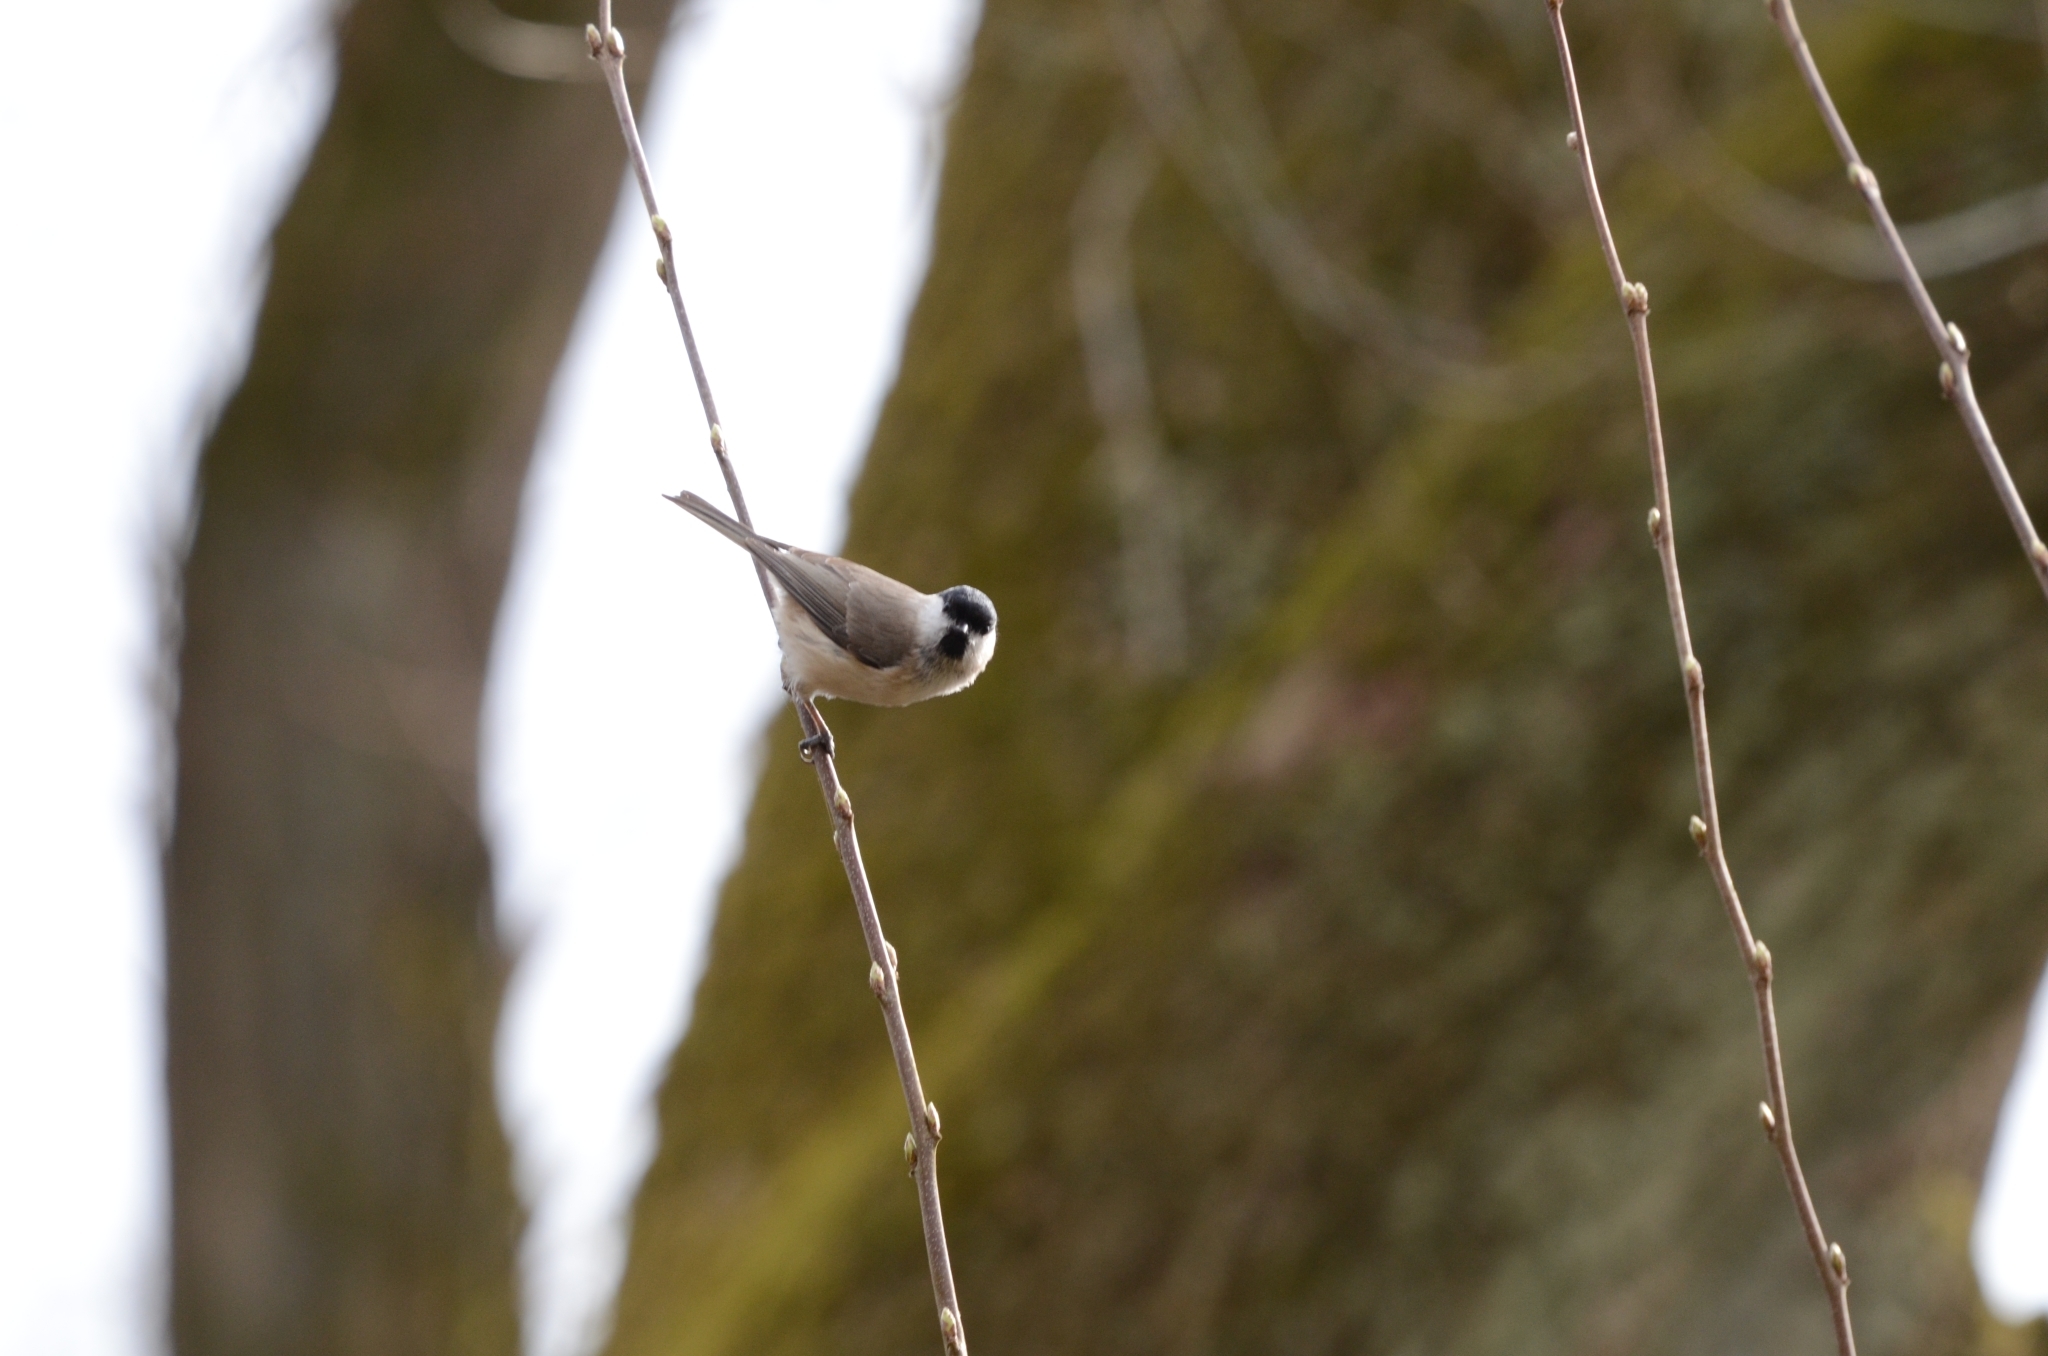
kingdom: Animalia
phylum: Chordata
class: Aves
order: Passeriformes
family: Paridae
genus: Poecile
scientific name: Poecile palustris
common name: Marsh tit
